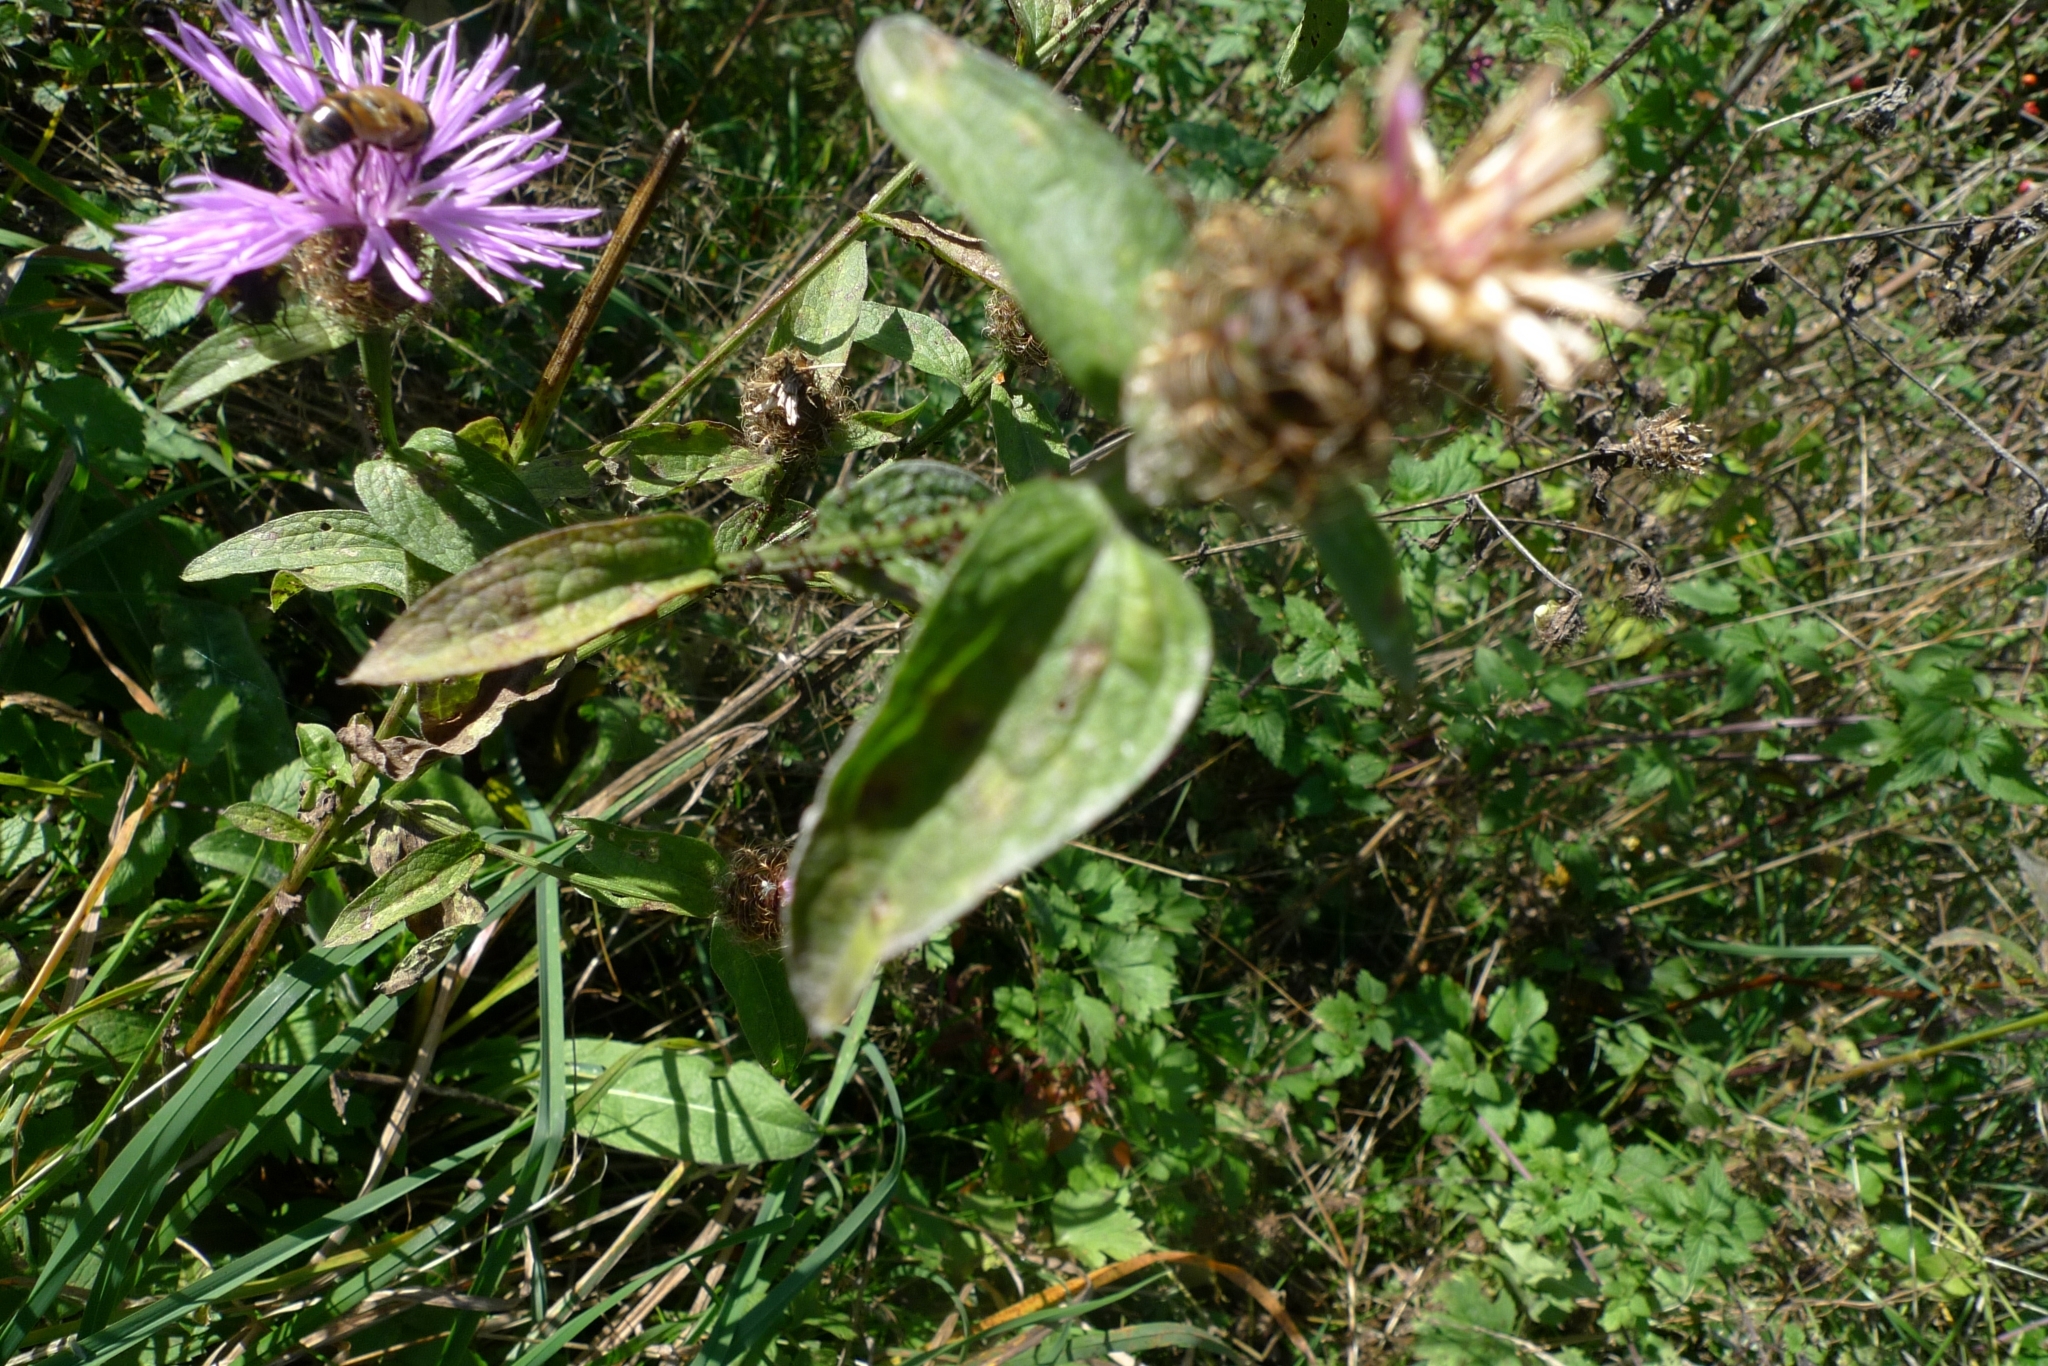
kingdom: Plantae
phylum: Tracheophyta
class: Magnoliopsida
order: Asterales
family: Asteraceae
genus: Centaurea
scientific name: Centaurea phrygia
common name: Wig knapweed
